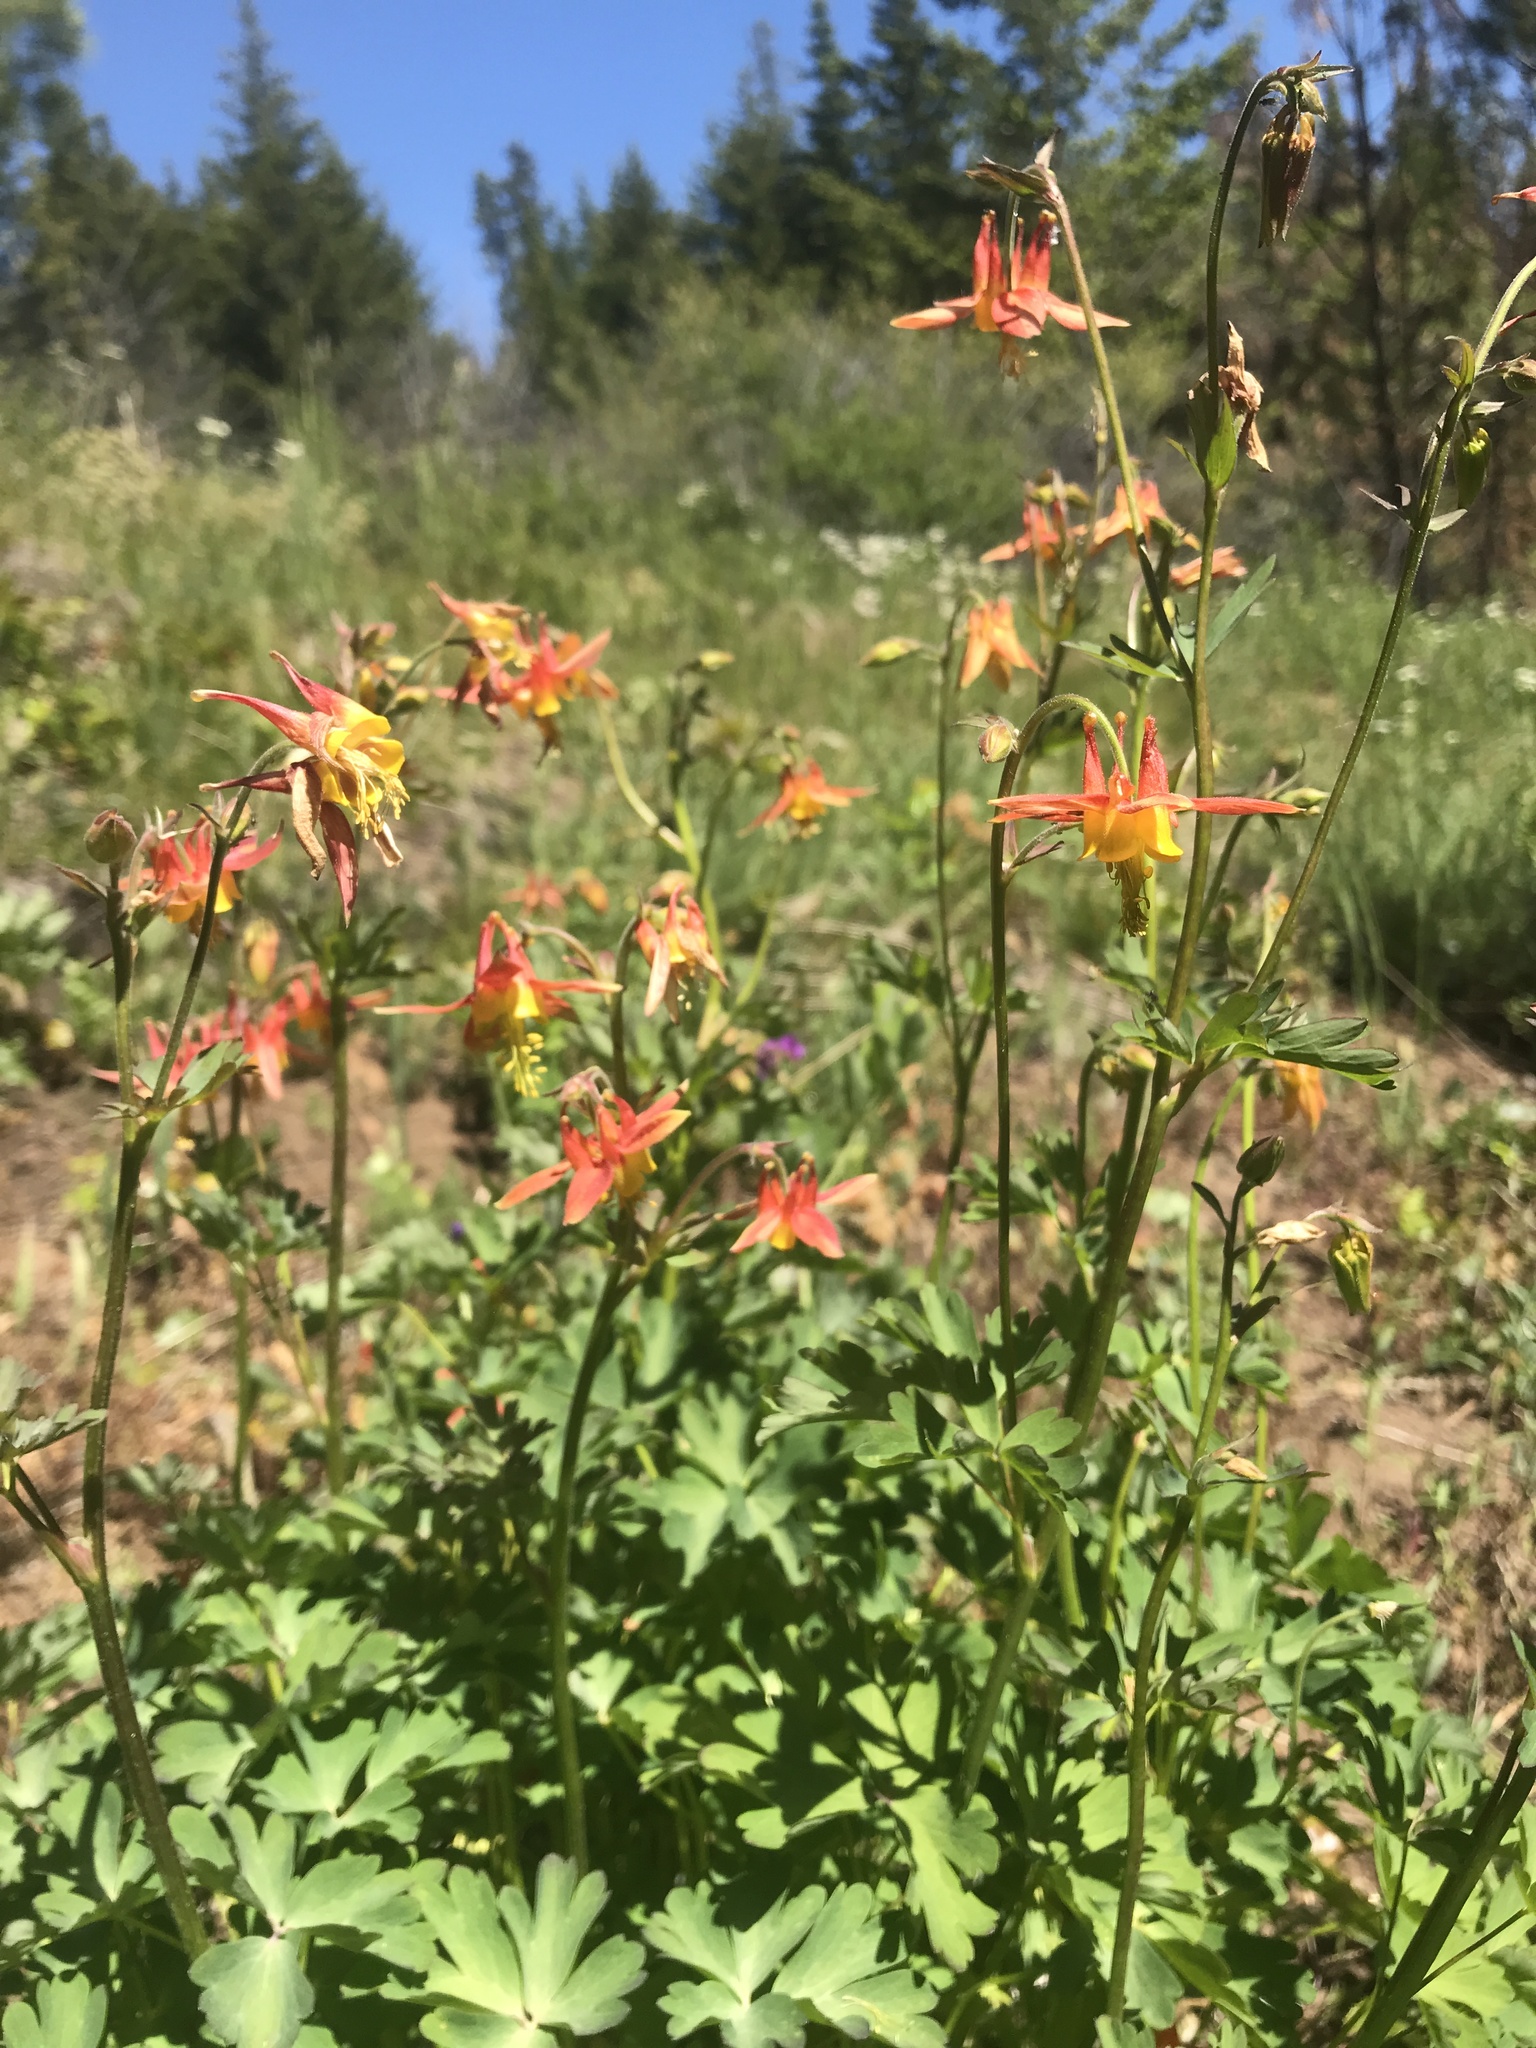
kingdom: Plantae
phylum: Tracheophyta
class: Magnoliopsida
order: Ranunculales
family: Ranunculaceae
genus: Aquilegia
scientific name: Aquilegia formosa
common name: Sitka columbine
